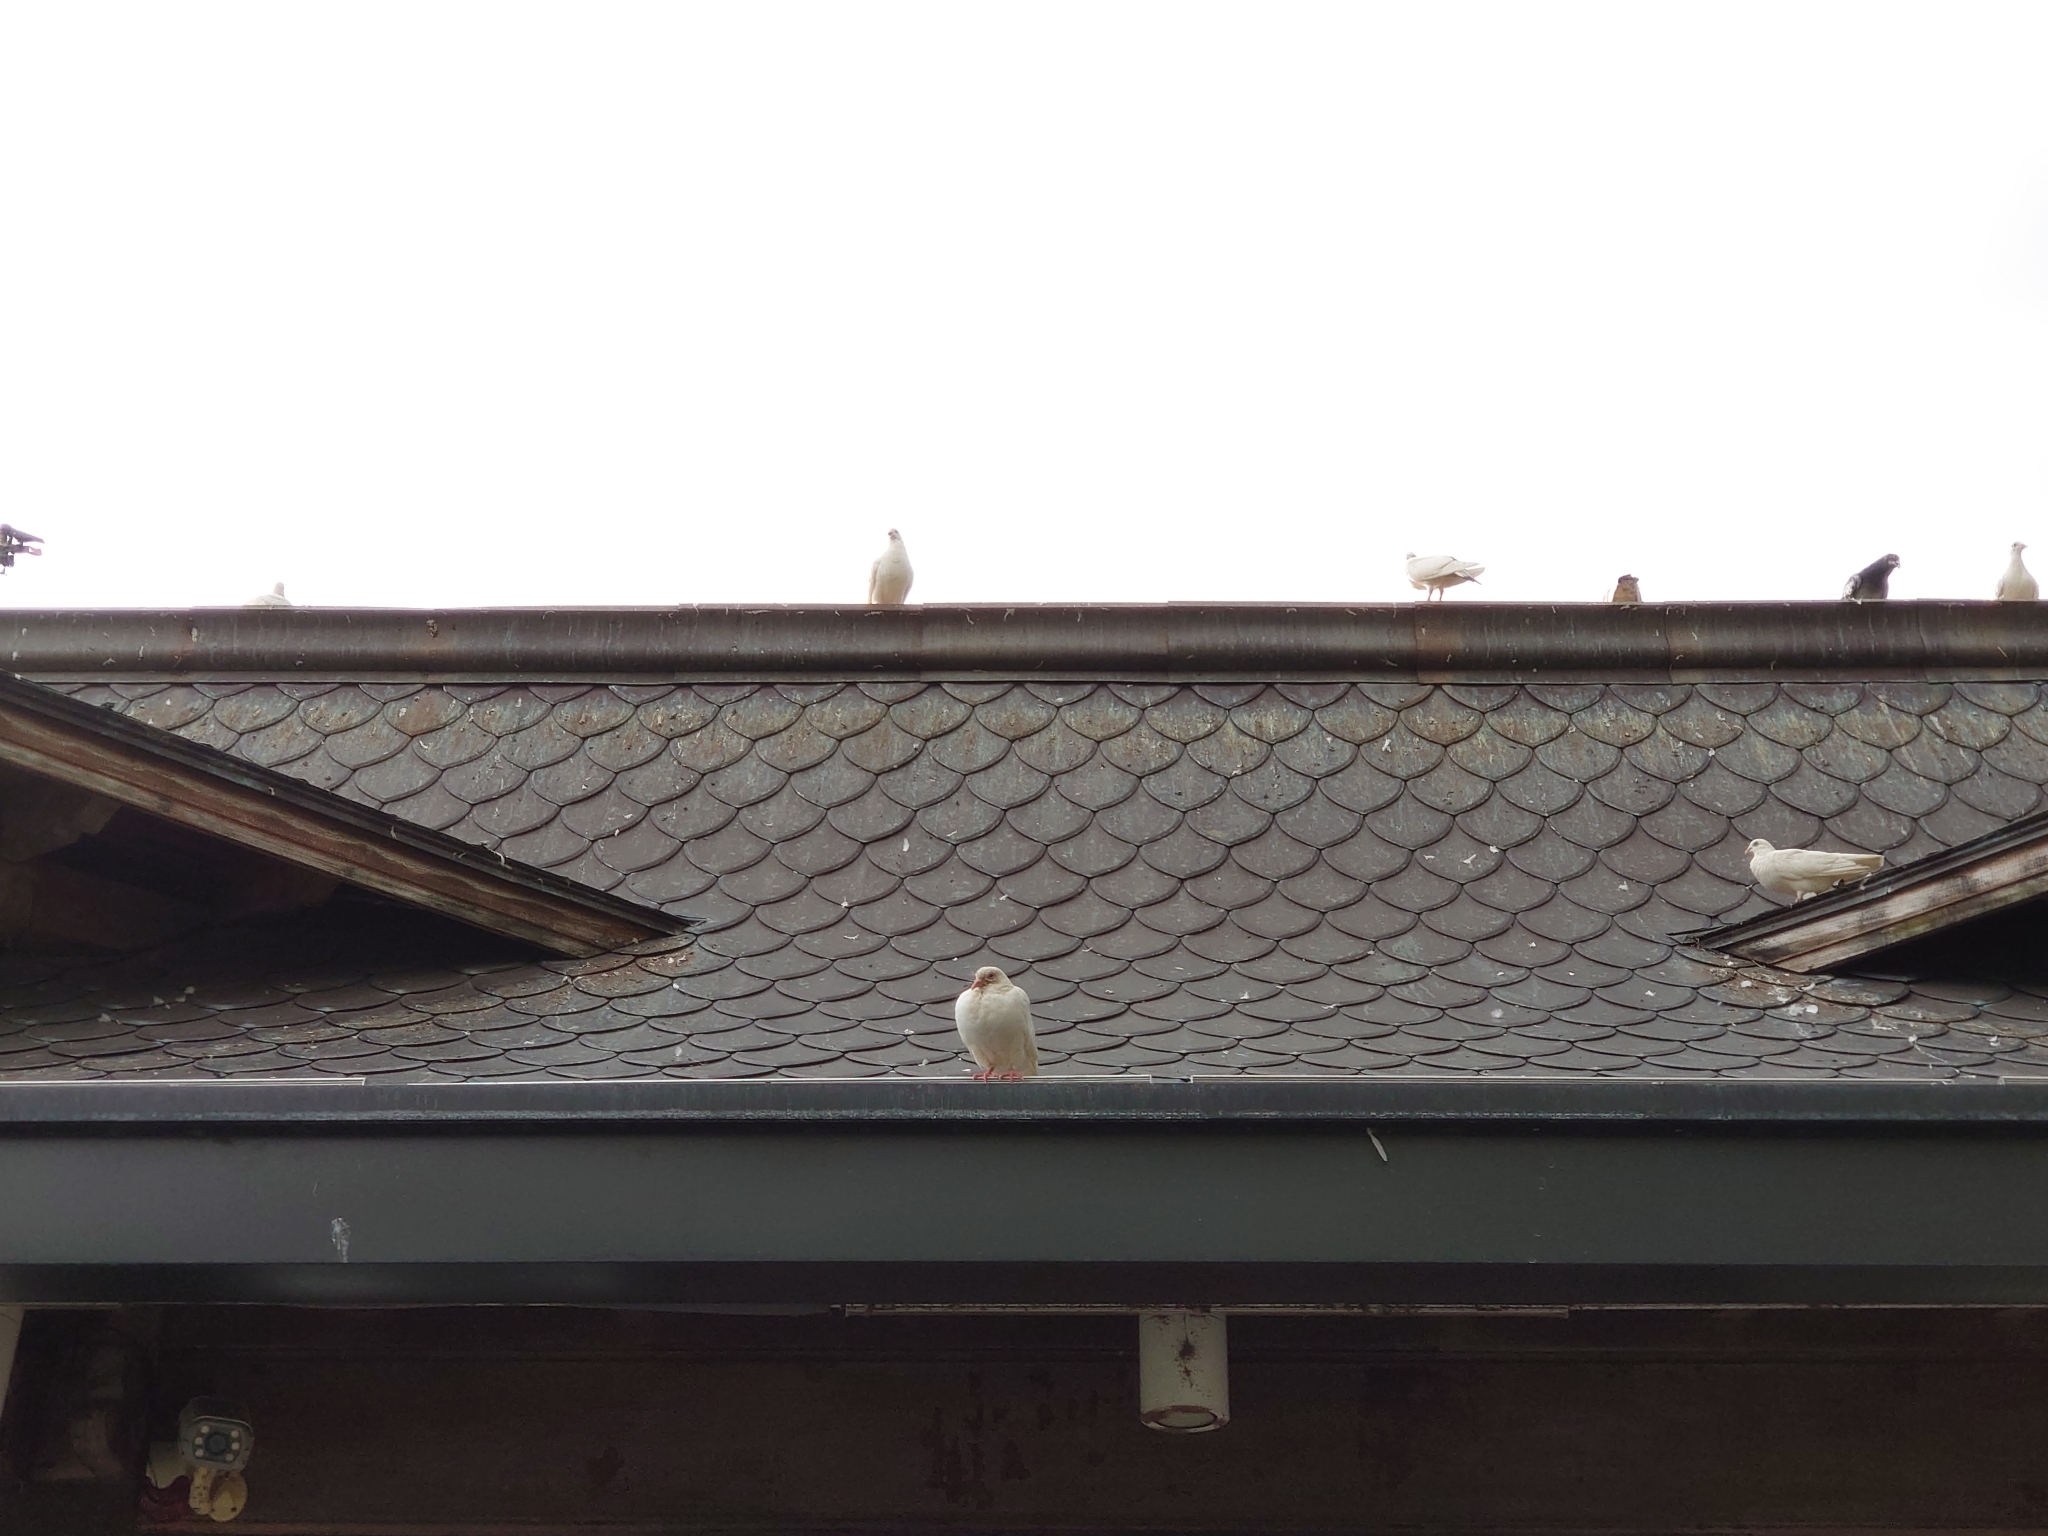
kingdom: Animalia
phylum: Chordata
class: Aves
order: Columbiformes
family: Columbidae
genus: Columba
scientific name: Columba livia
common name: Rock pigeon
